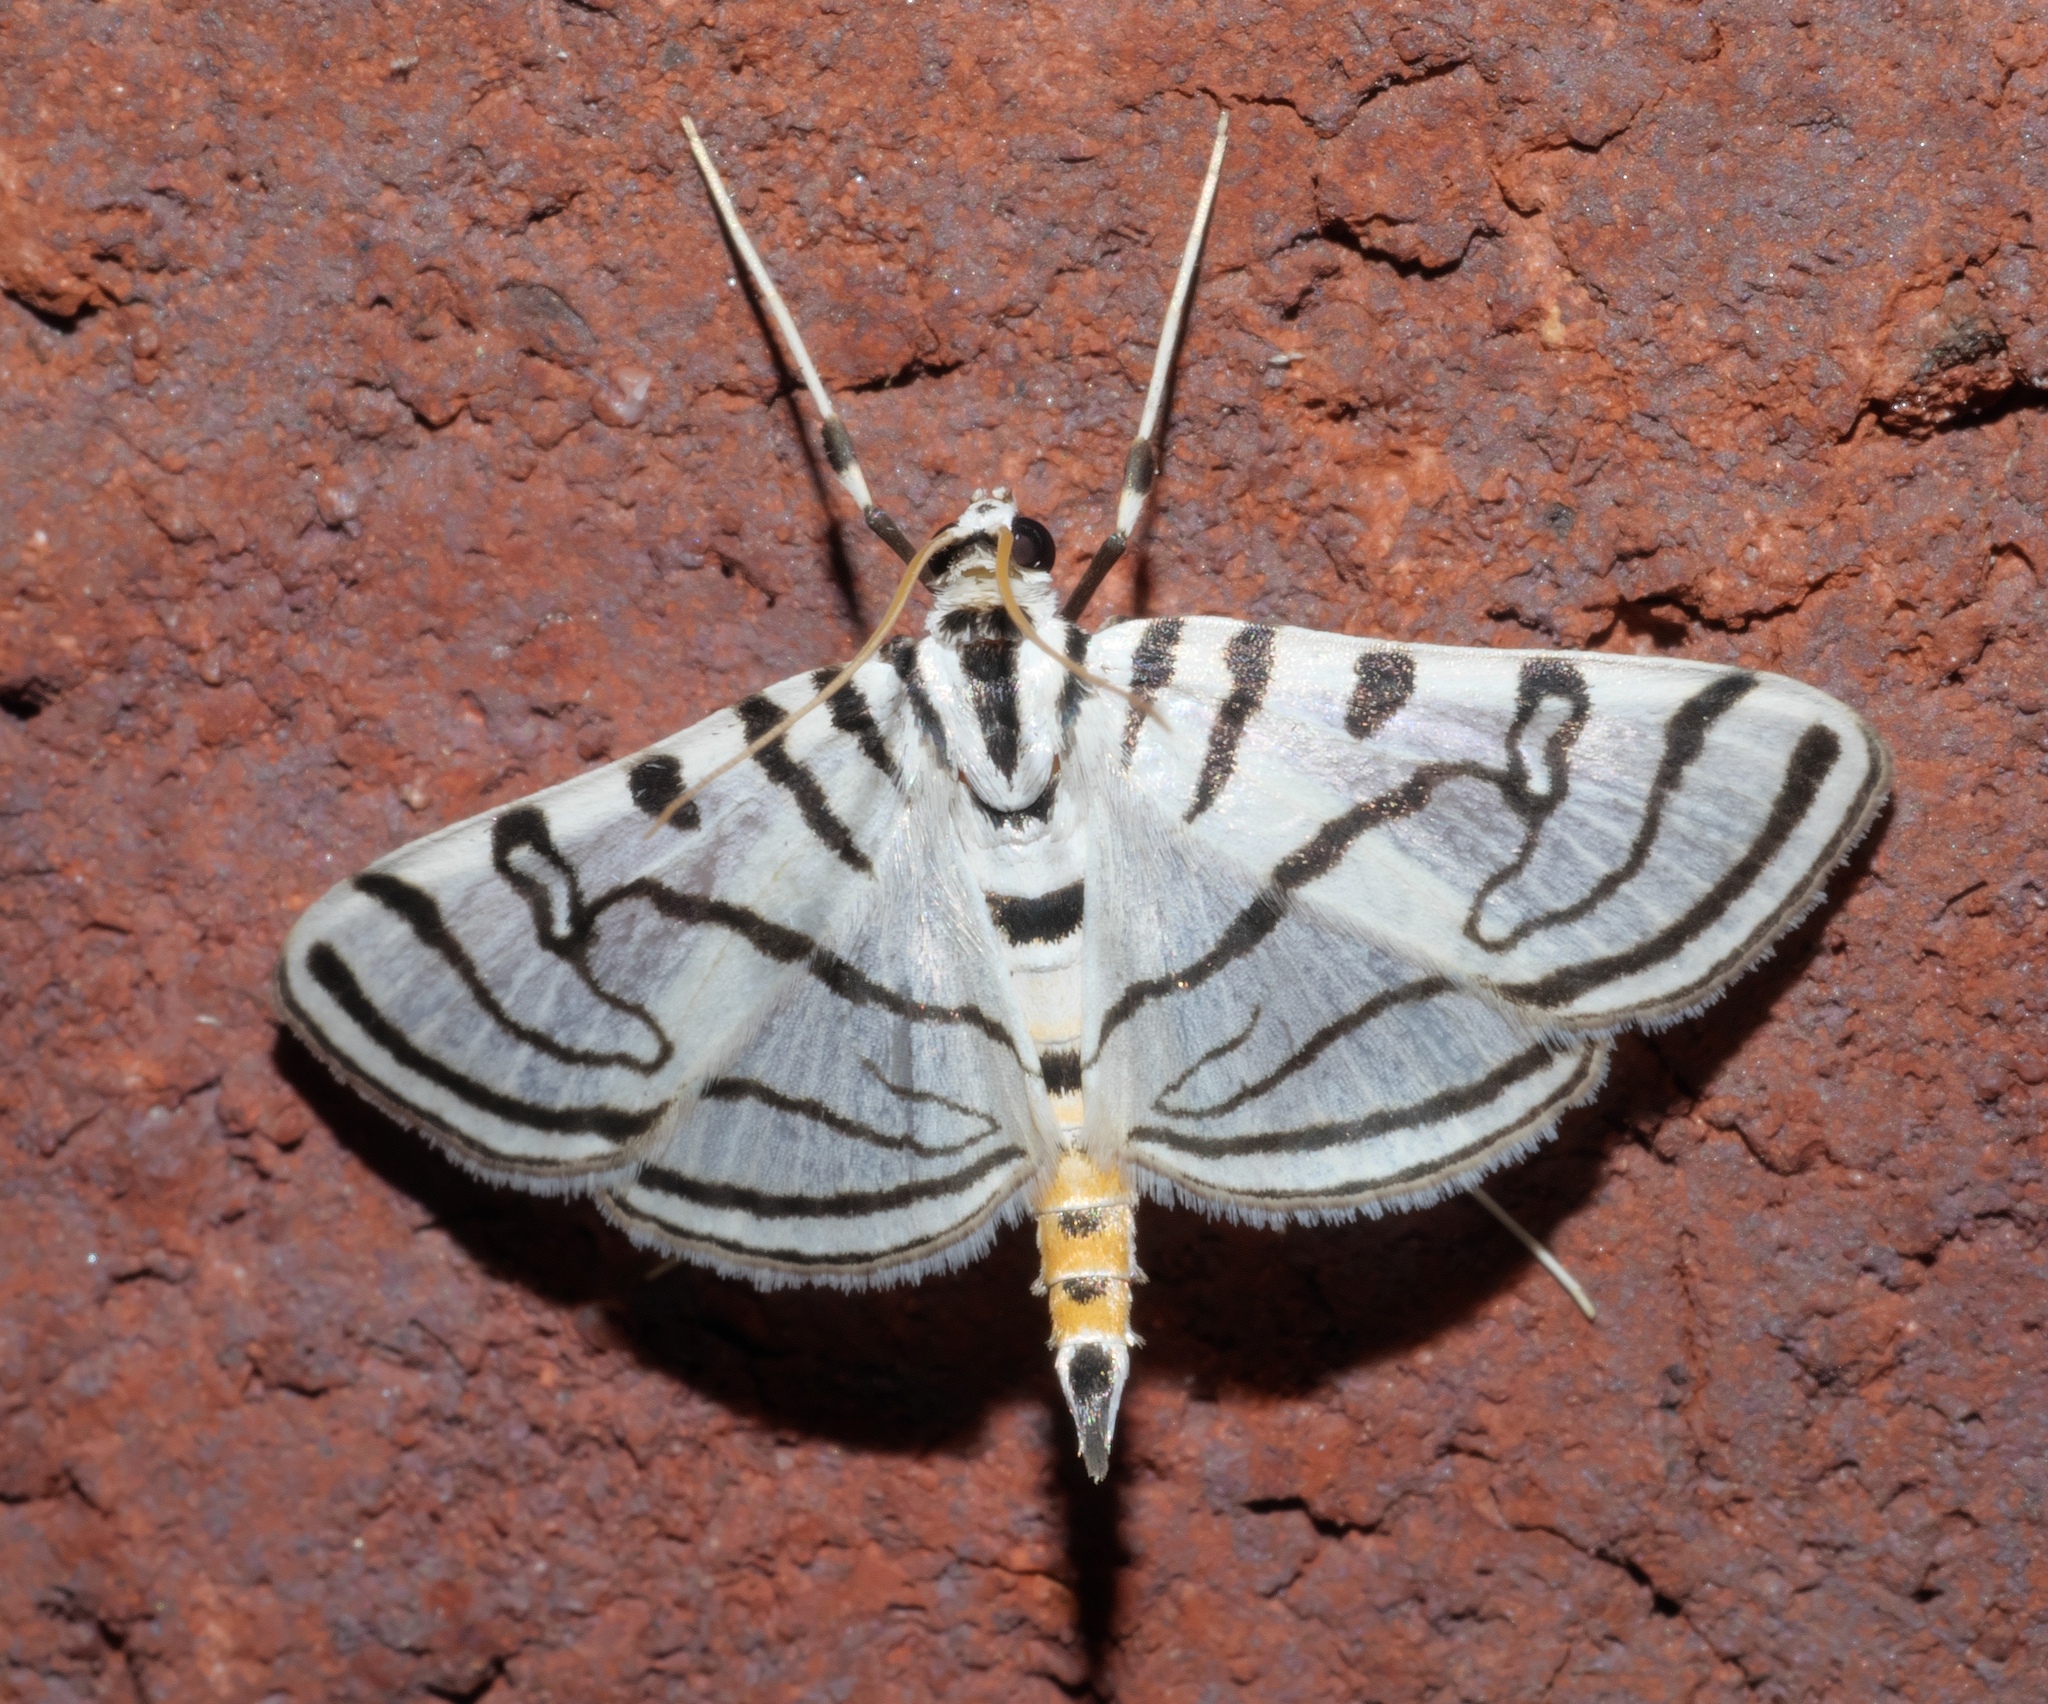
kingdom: Animalia
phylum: Arthropoda
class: Insecta
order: Lepidoptera
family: Crambidae
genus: Conchylodes
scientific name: Conchylodes ovulalis
